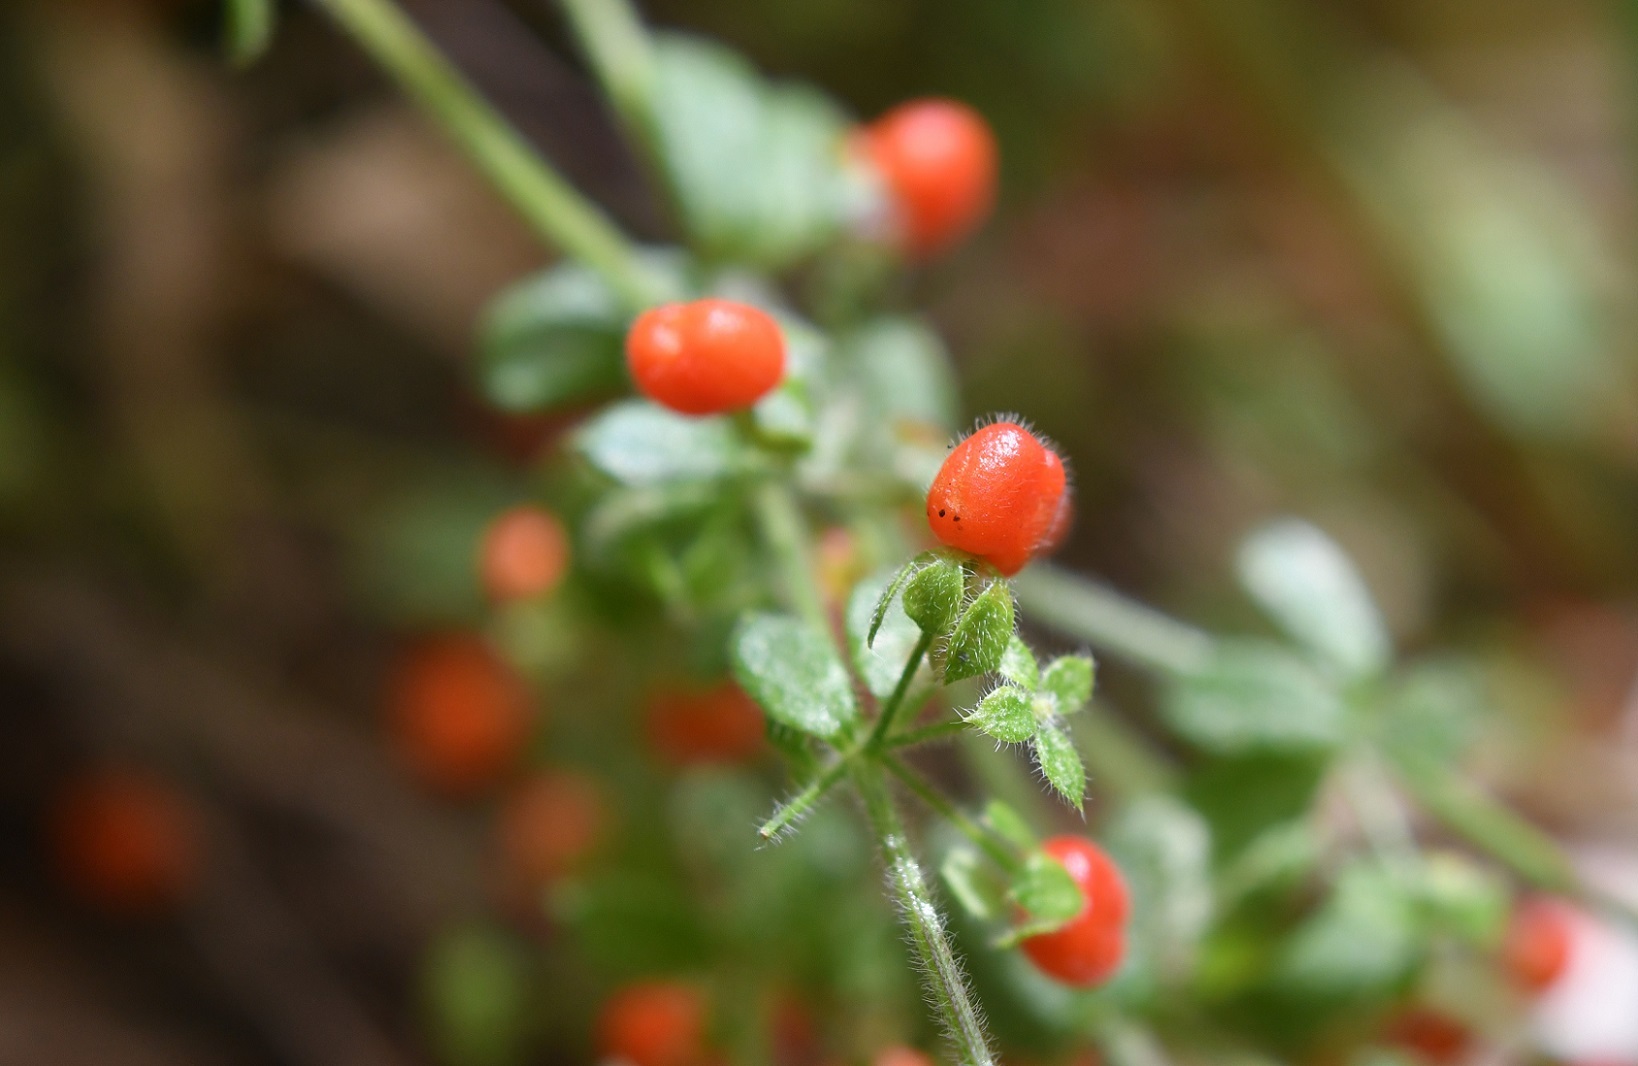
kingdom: Plantae
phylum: Tracheophyta
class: Magnoliopsida
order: Gentianales
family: Rubiaceae
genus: Galium
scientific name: Galium hypocarpium
